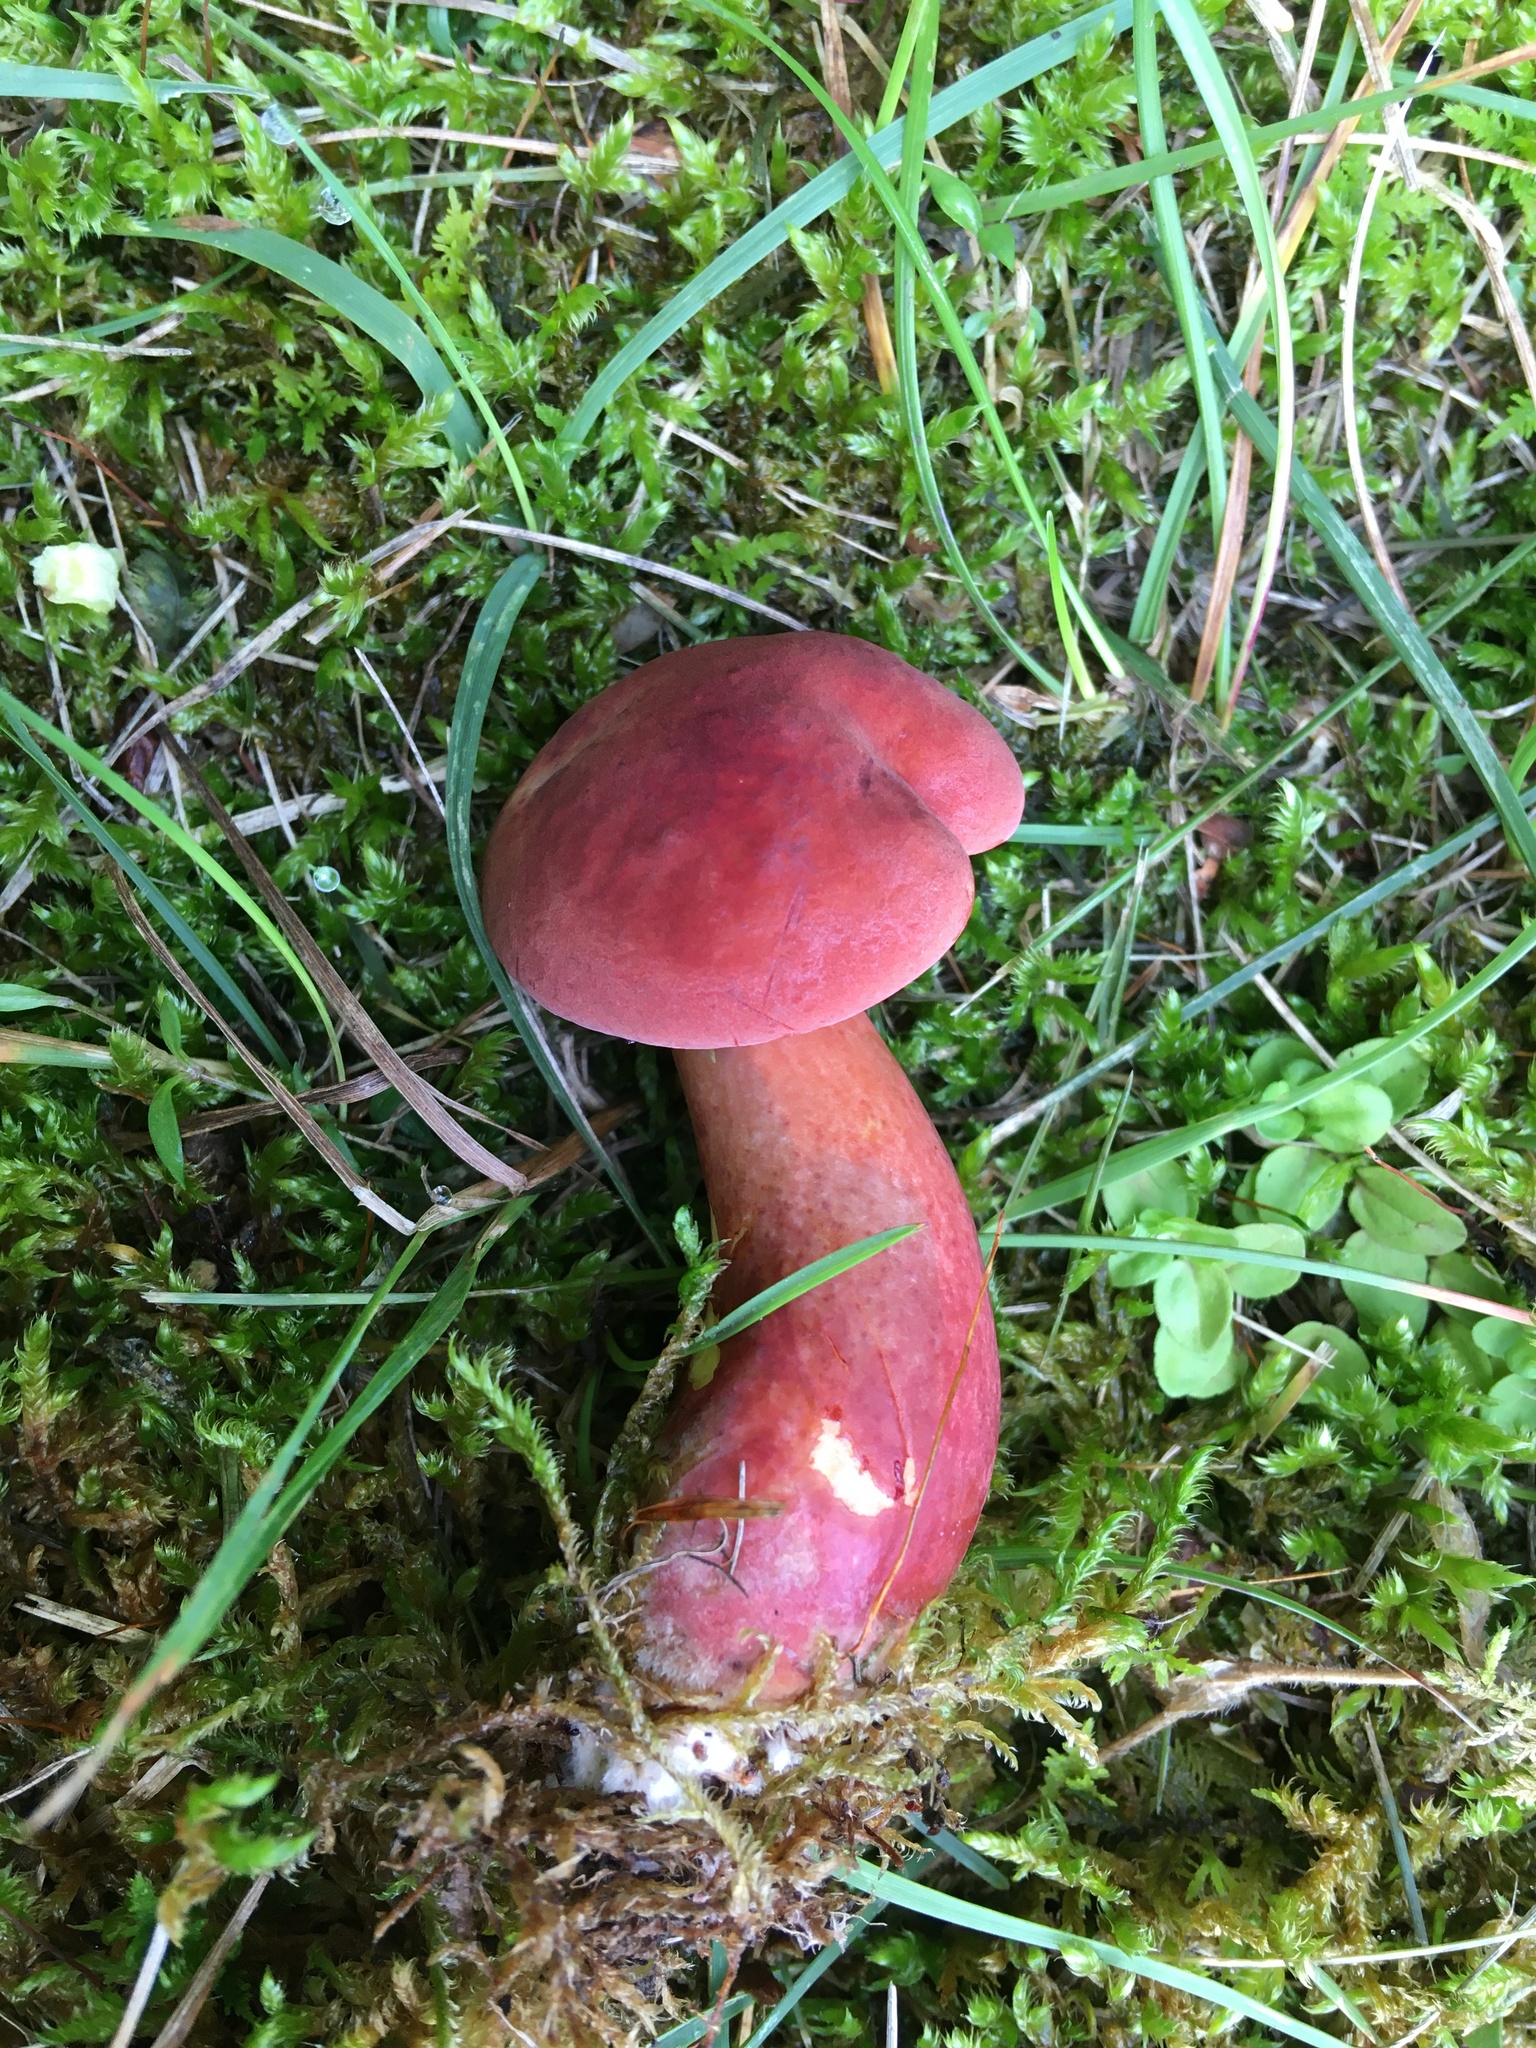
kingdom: Fungi
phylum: Basidiomycota
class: Agaricomycetes
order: Boletales
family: Boletaceae
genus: Baorangia
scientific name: Baorangia bicolor
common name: Two-colored bolete
